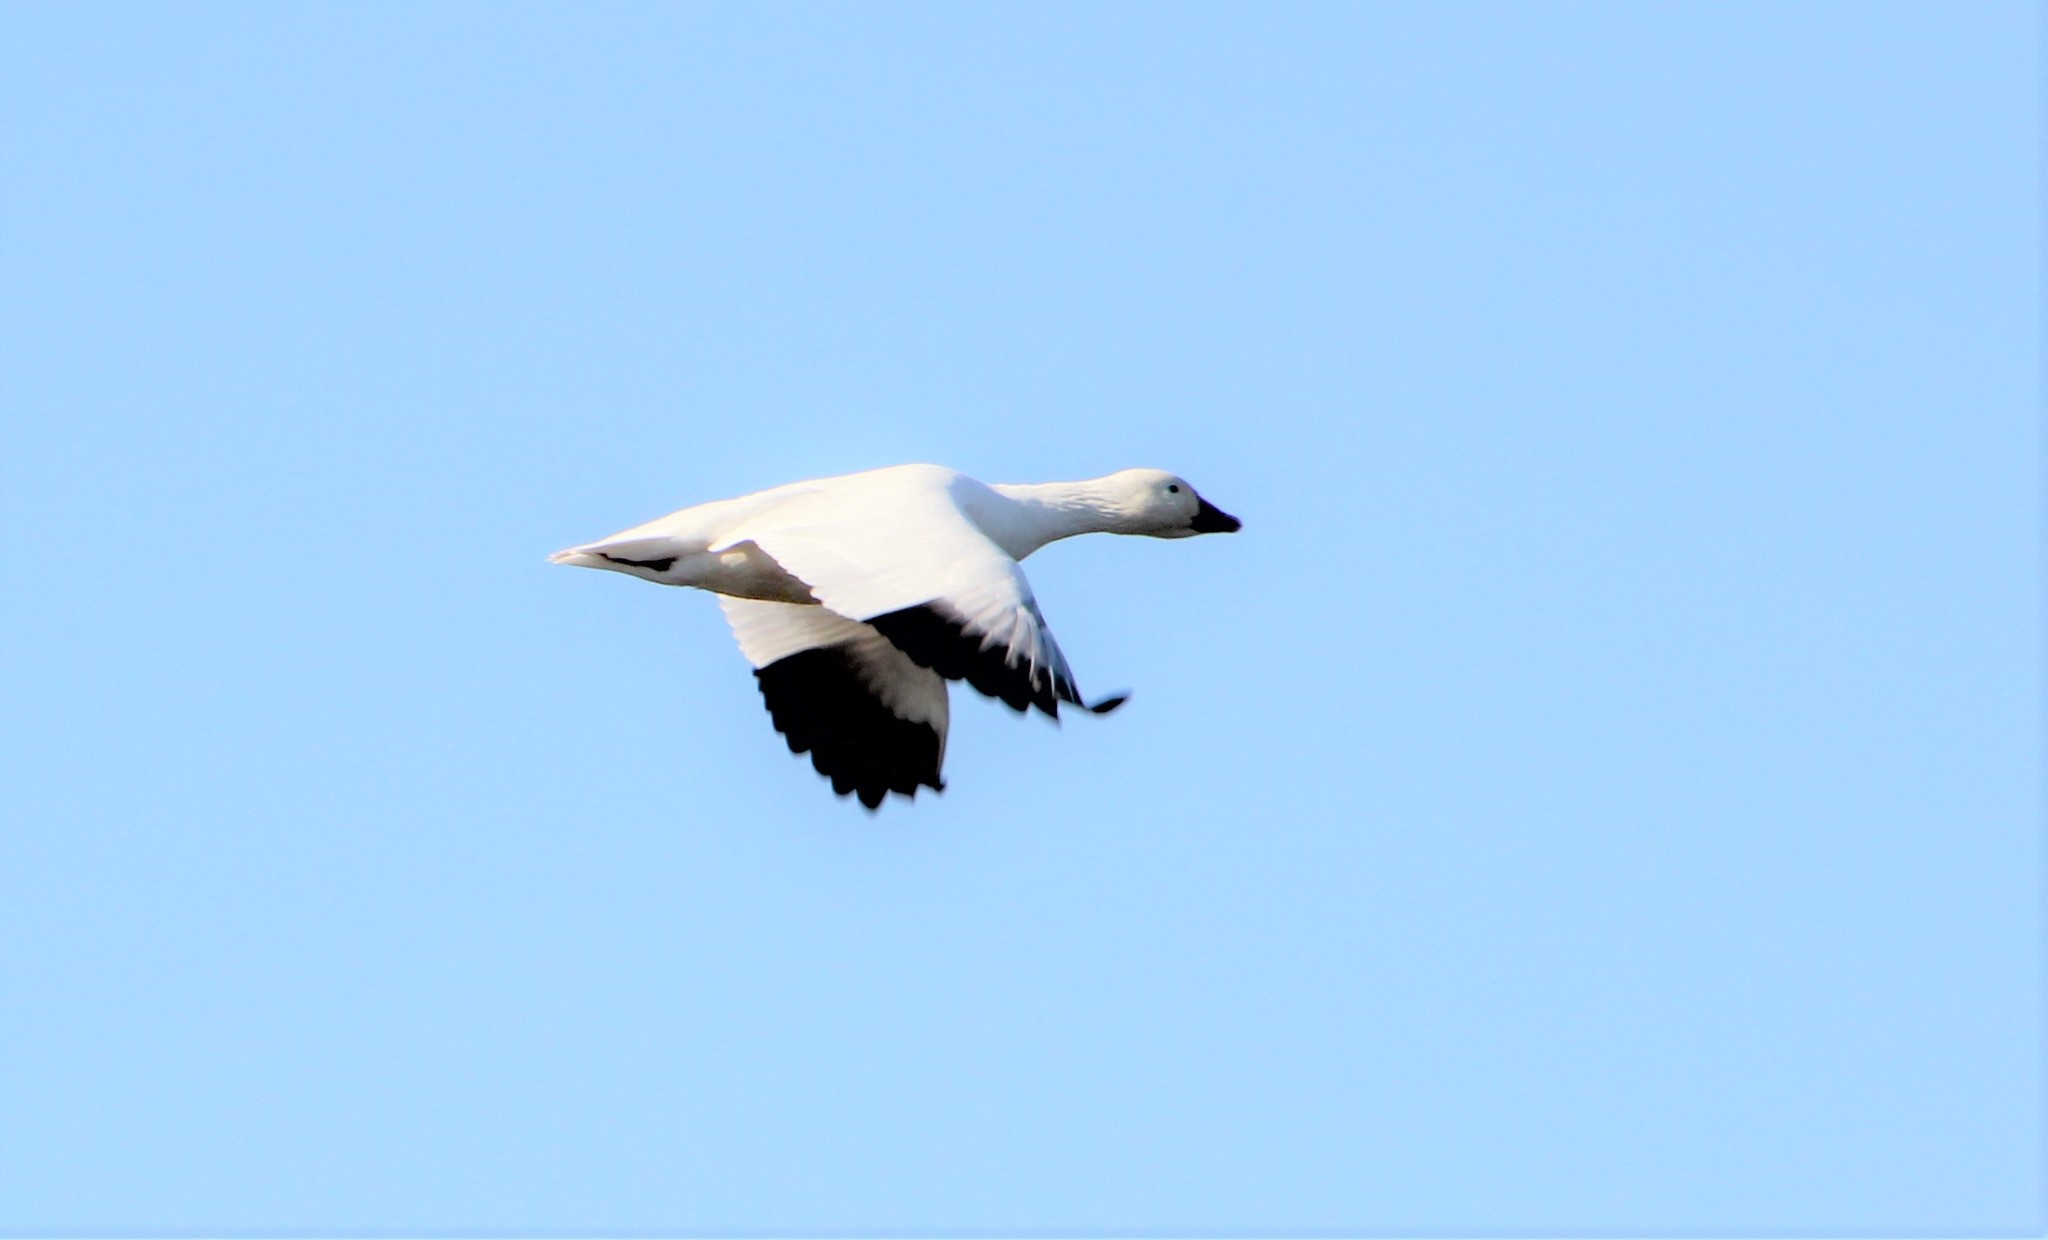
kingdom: Animalia
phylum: Chordata
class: Aves
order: Anseriformes
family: Anatidae
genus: Anser
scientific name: Anser caerulescens
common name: Snow goose
